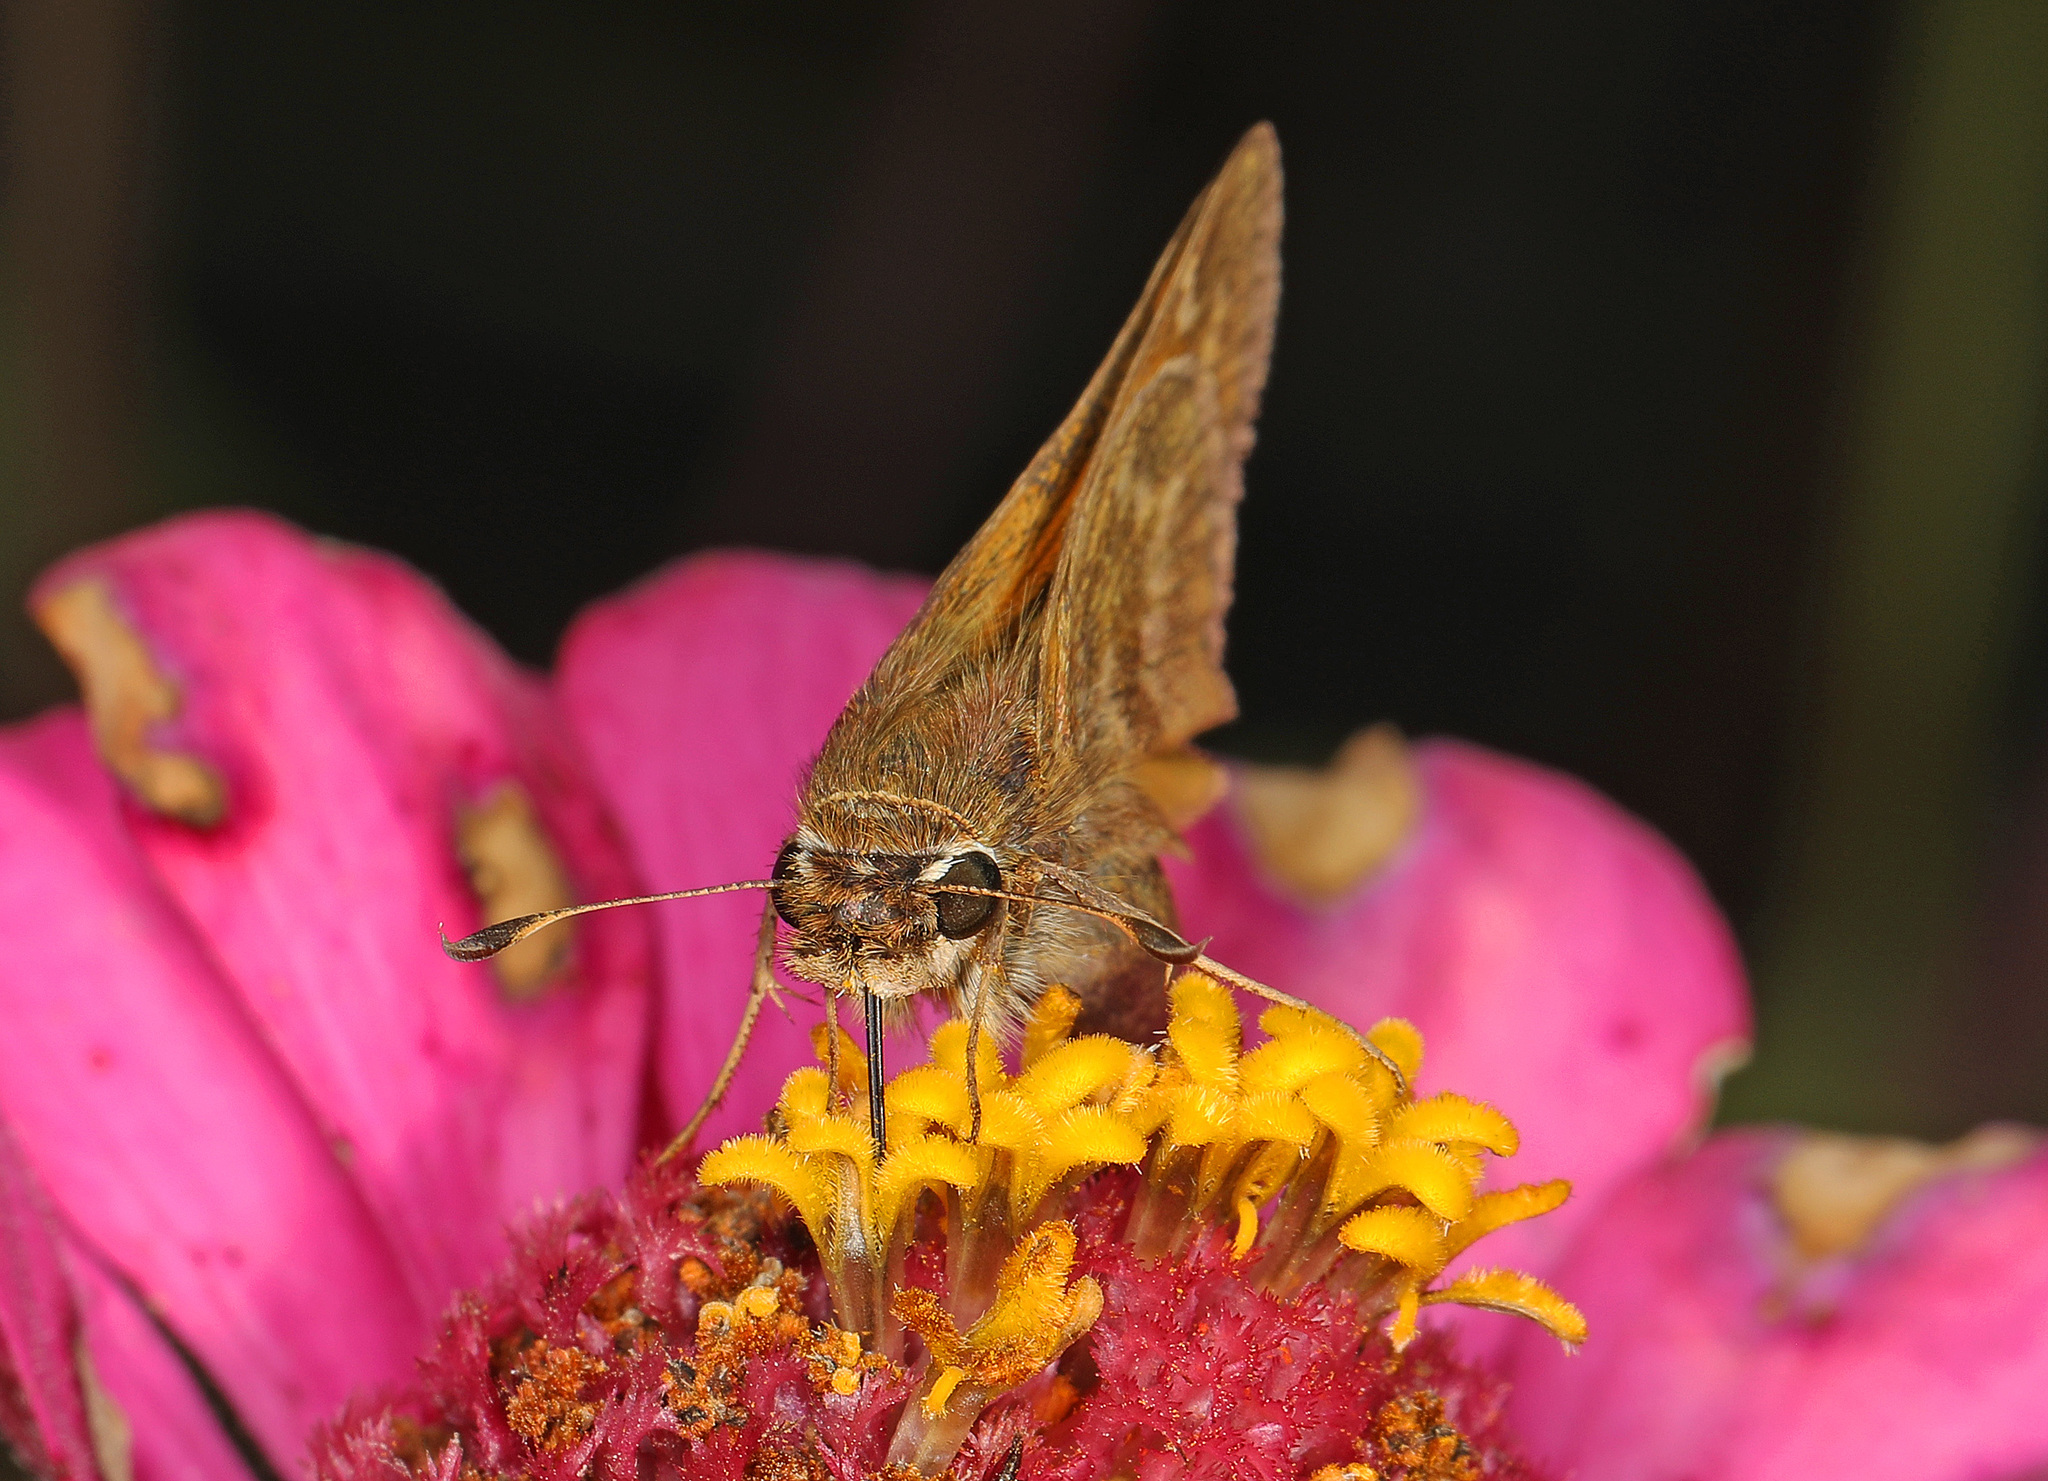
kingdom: Animalia
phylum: Arthropoda
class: Insecta
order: Lepidoptera
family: Hesperiidae
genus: Atalopedes
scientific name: Atalopedes
